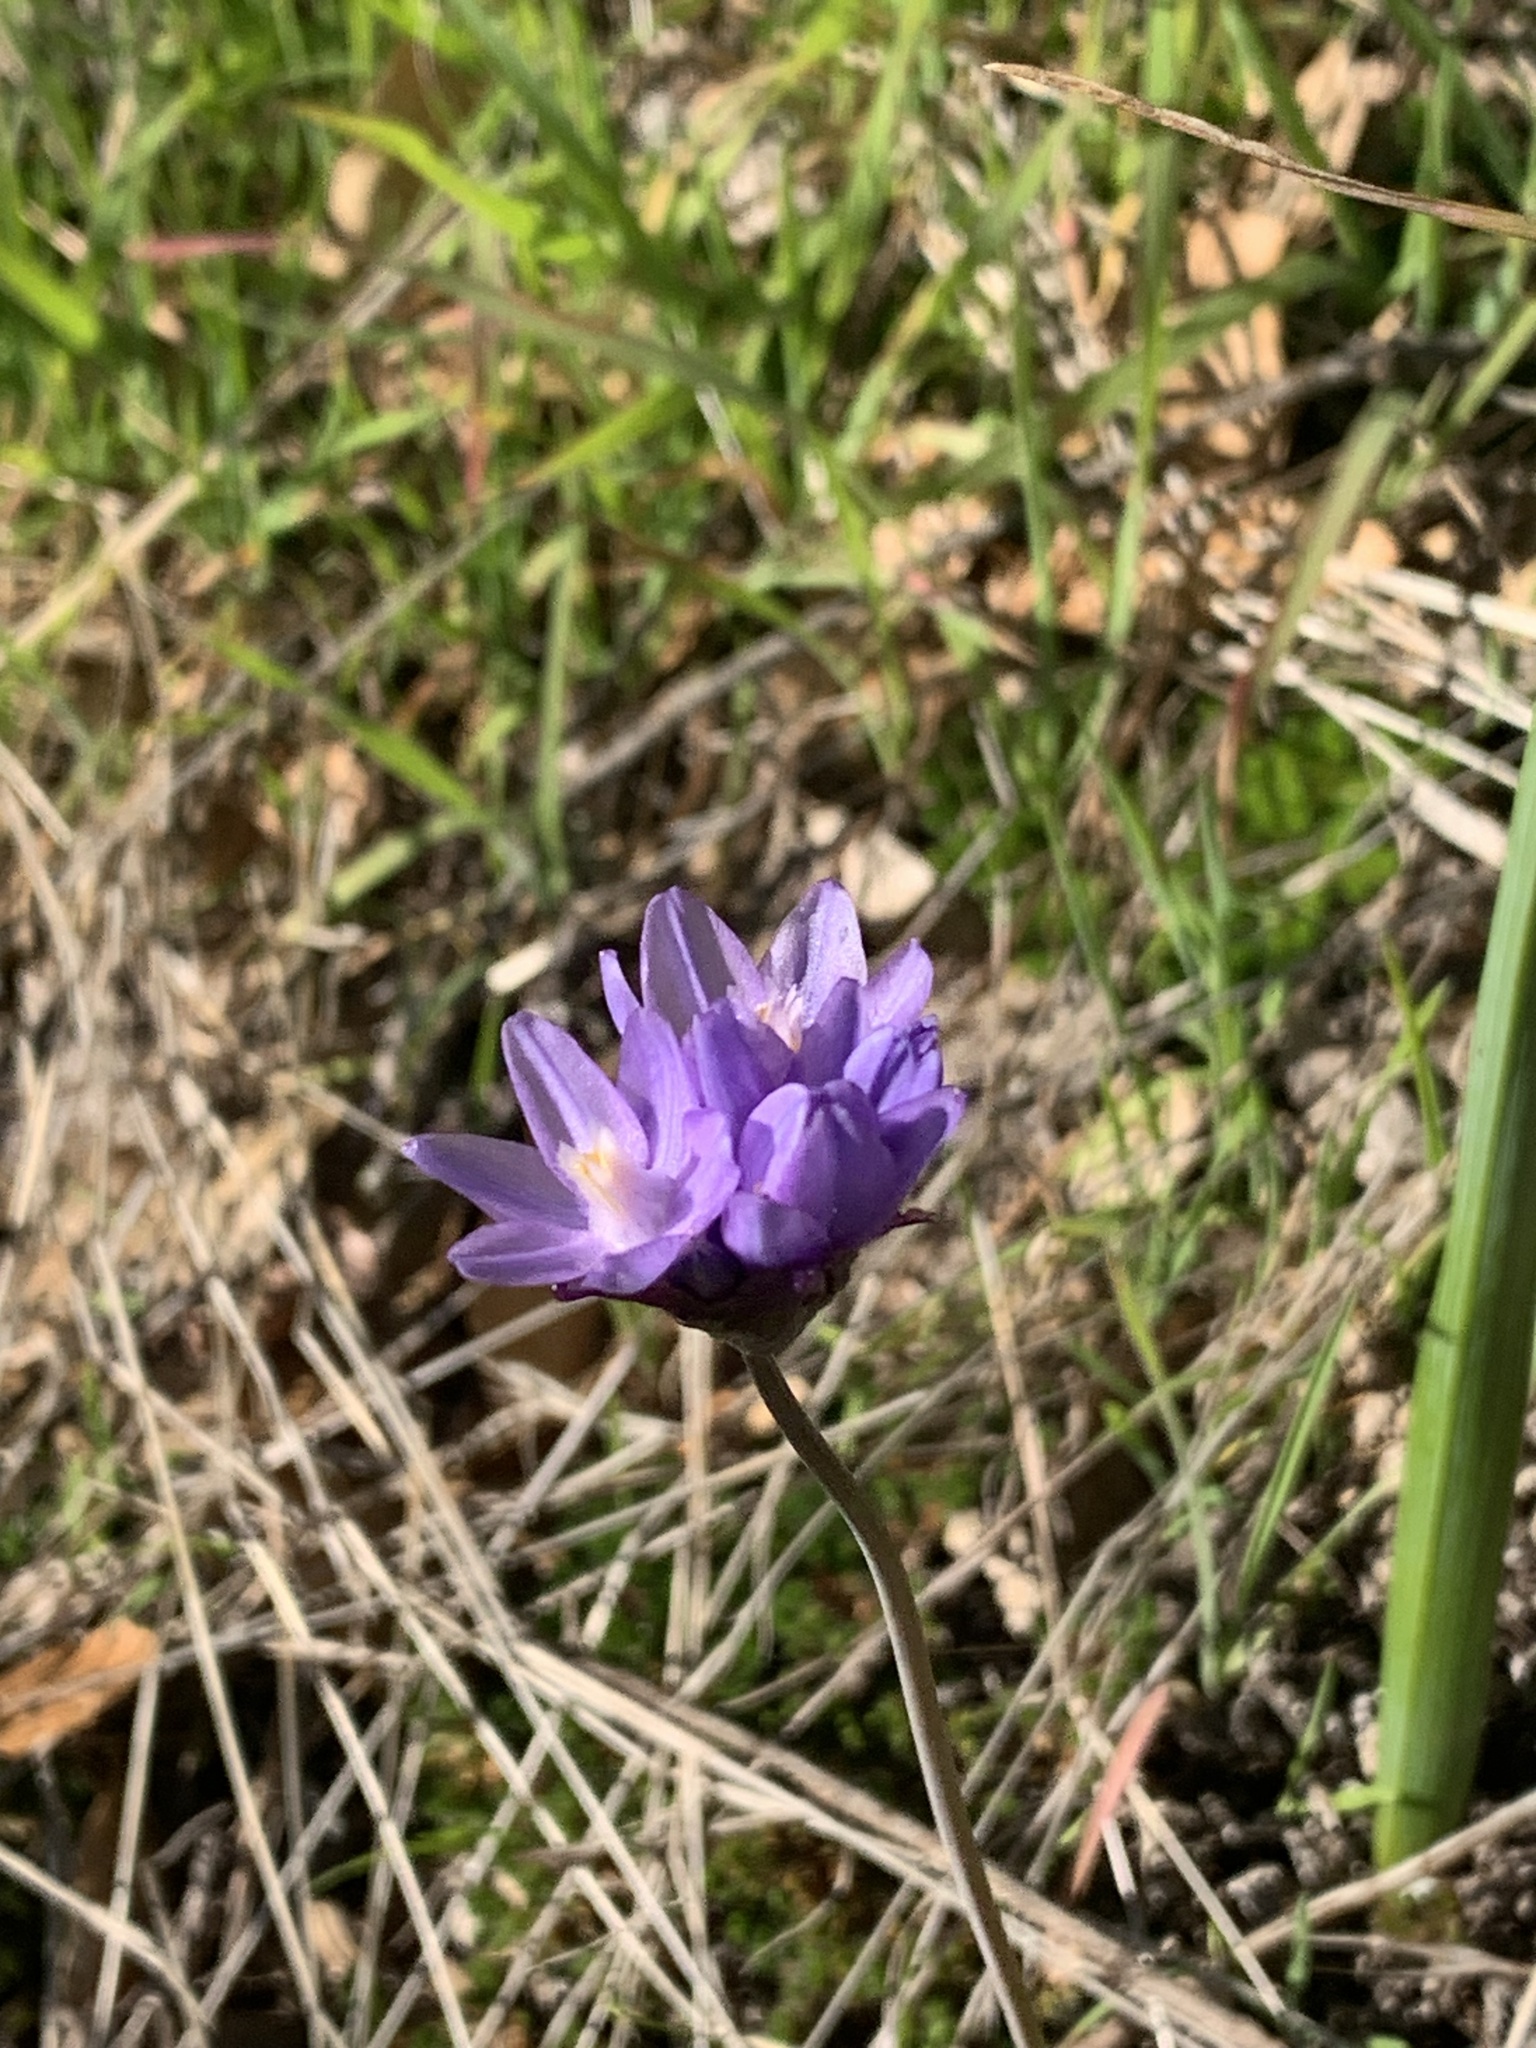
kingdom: Plantae
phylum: Tracheophyta
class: Liliopsida
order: Asparagales
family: Asparagaceae
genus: Dipterostemon
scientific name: Dipterostemon capitatus
